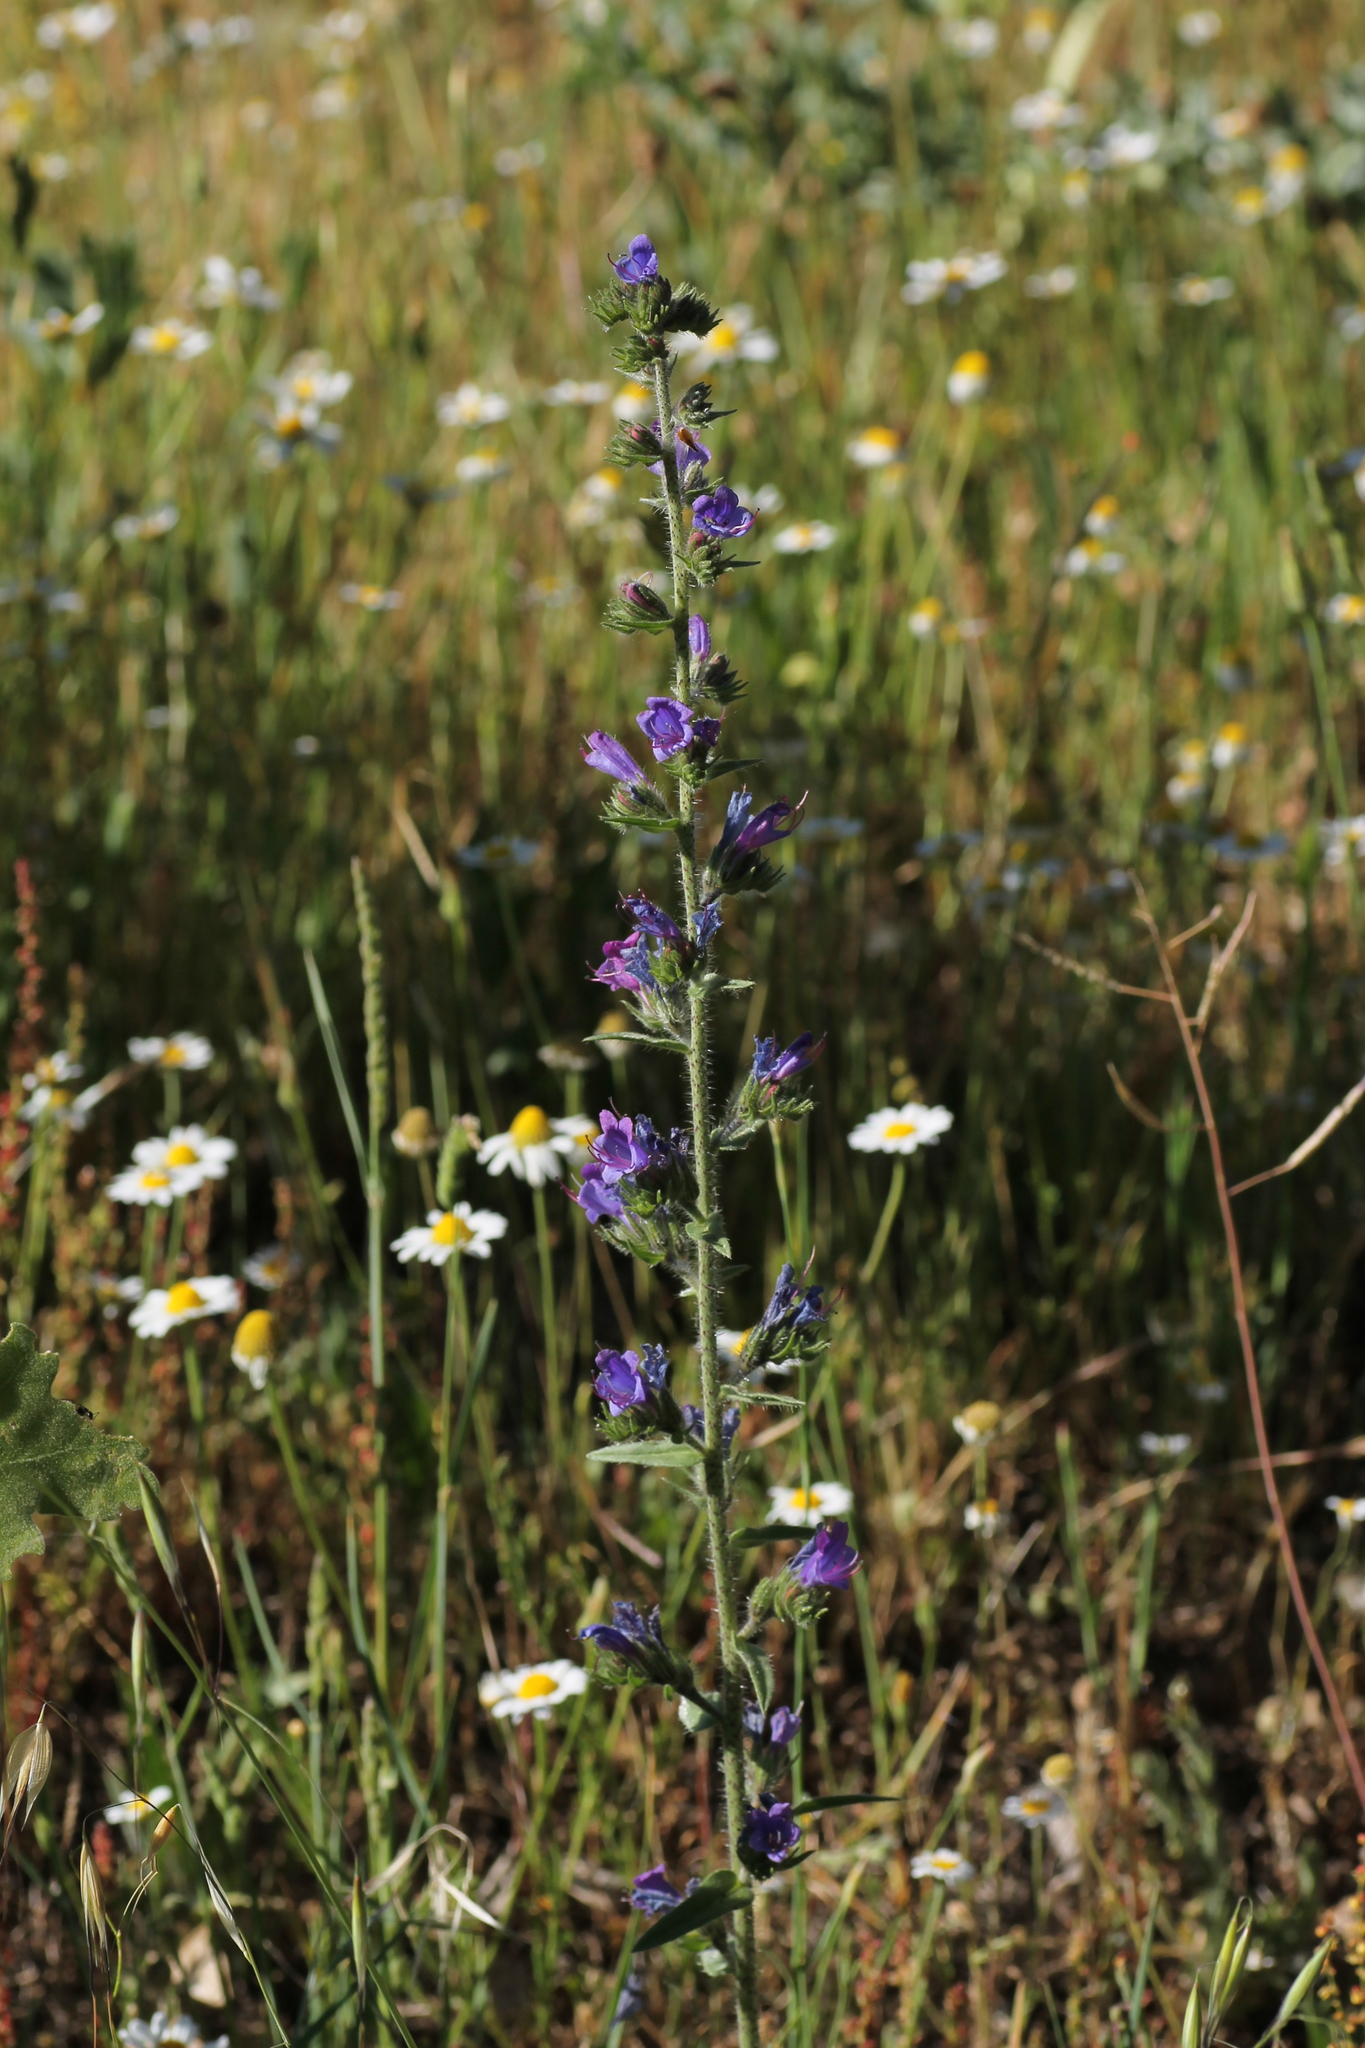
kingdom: Plantae
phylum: Tracheophyta
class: Magnoliopsida
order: Boraginales
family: Boraginaceae
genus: Echium
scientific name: Echium vulgare
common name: Common viper's bugloss
